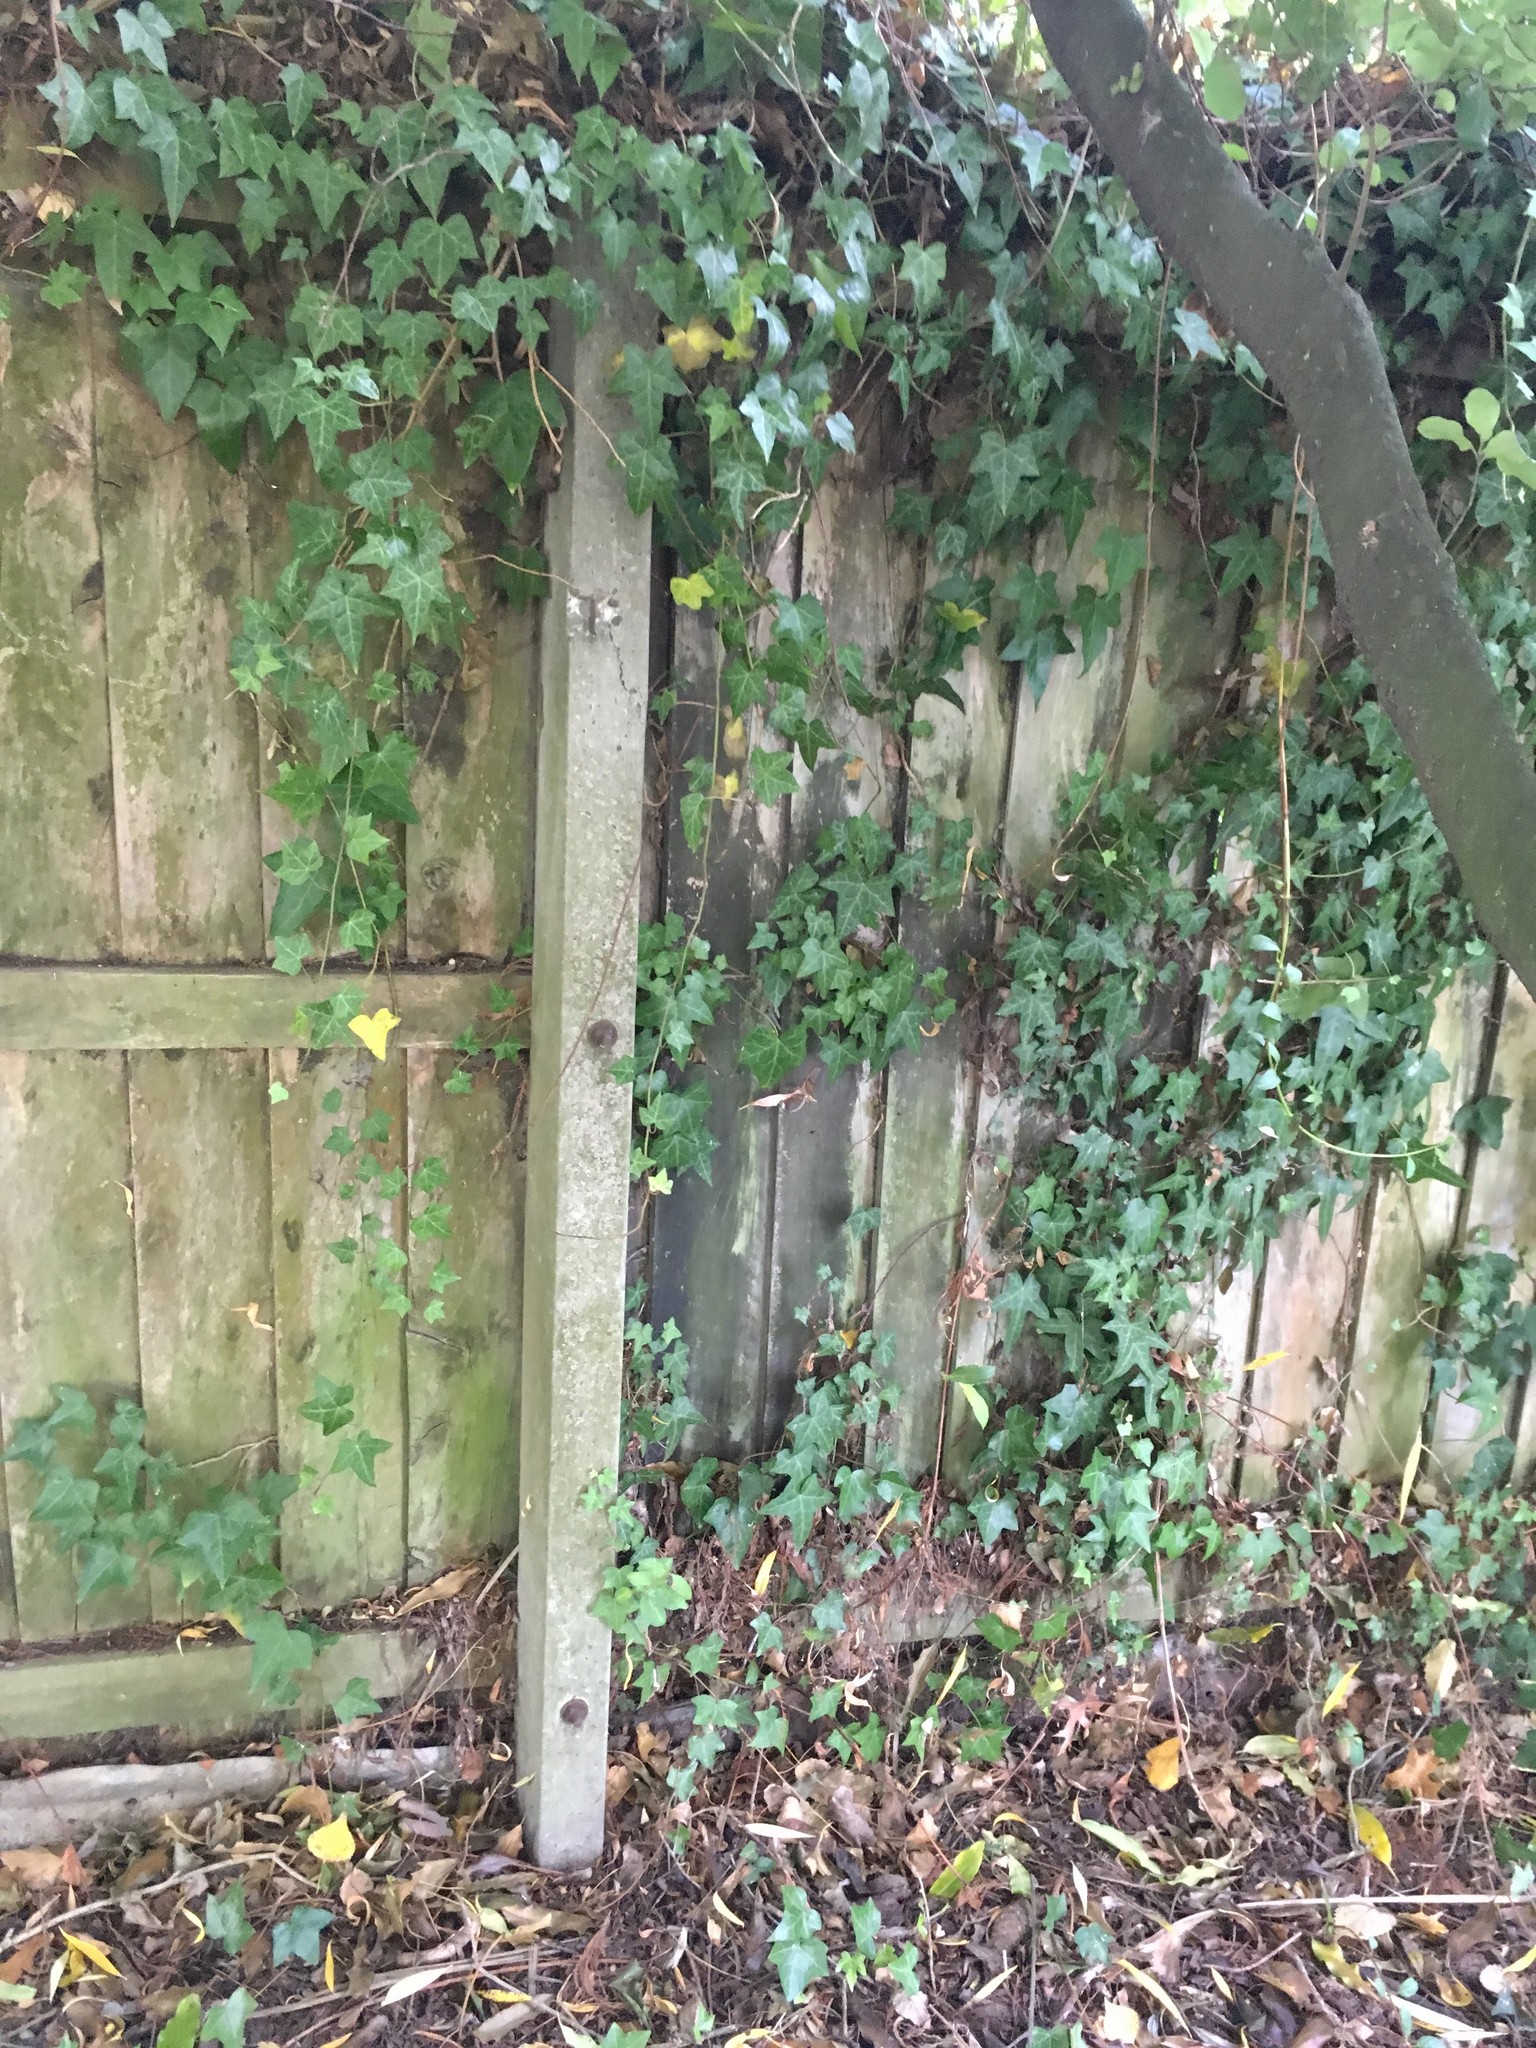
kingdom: Plantae
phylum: Tracheophyta
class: Magnoliopsida
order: Apiales
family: Araliaceae
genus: Hedera
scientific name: Hedera helix
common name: Ivy
